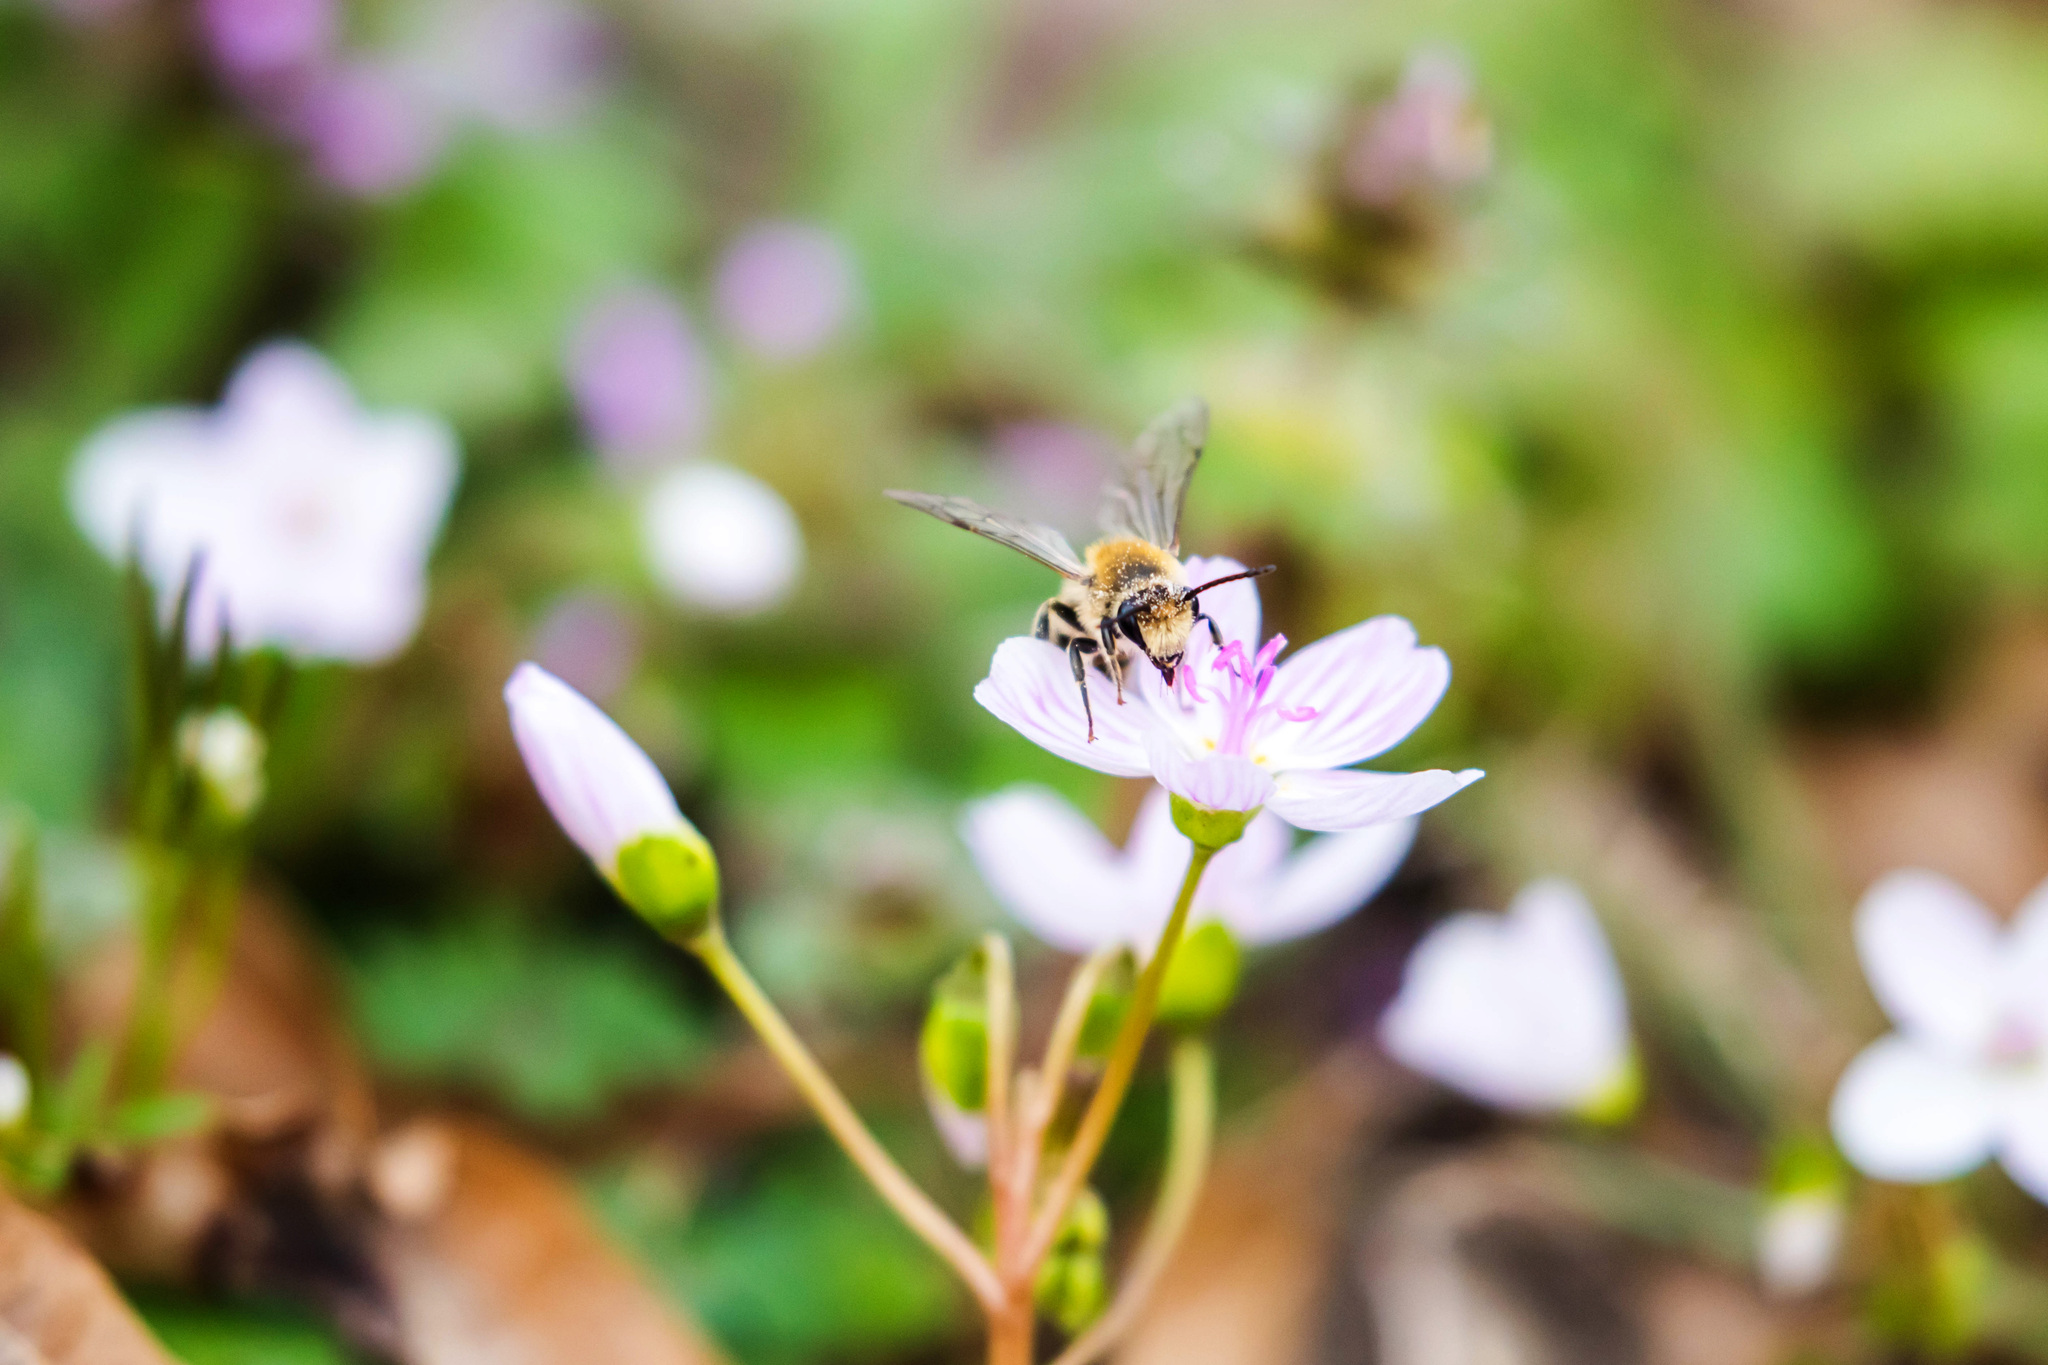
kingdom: Animalia
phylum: Arthropoda
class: Insecta
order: Hymenoptera
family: Colletidae
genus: Colletes
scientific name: Colletes inaequalis
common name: Unequal cellophane bee
